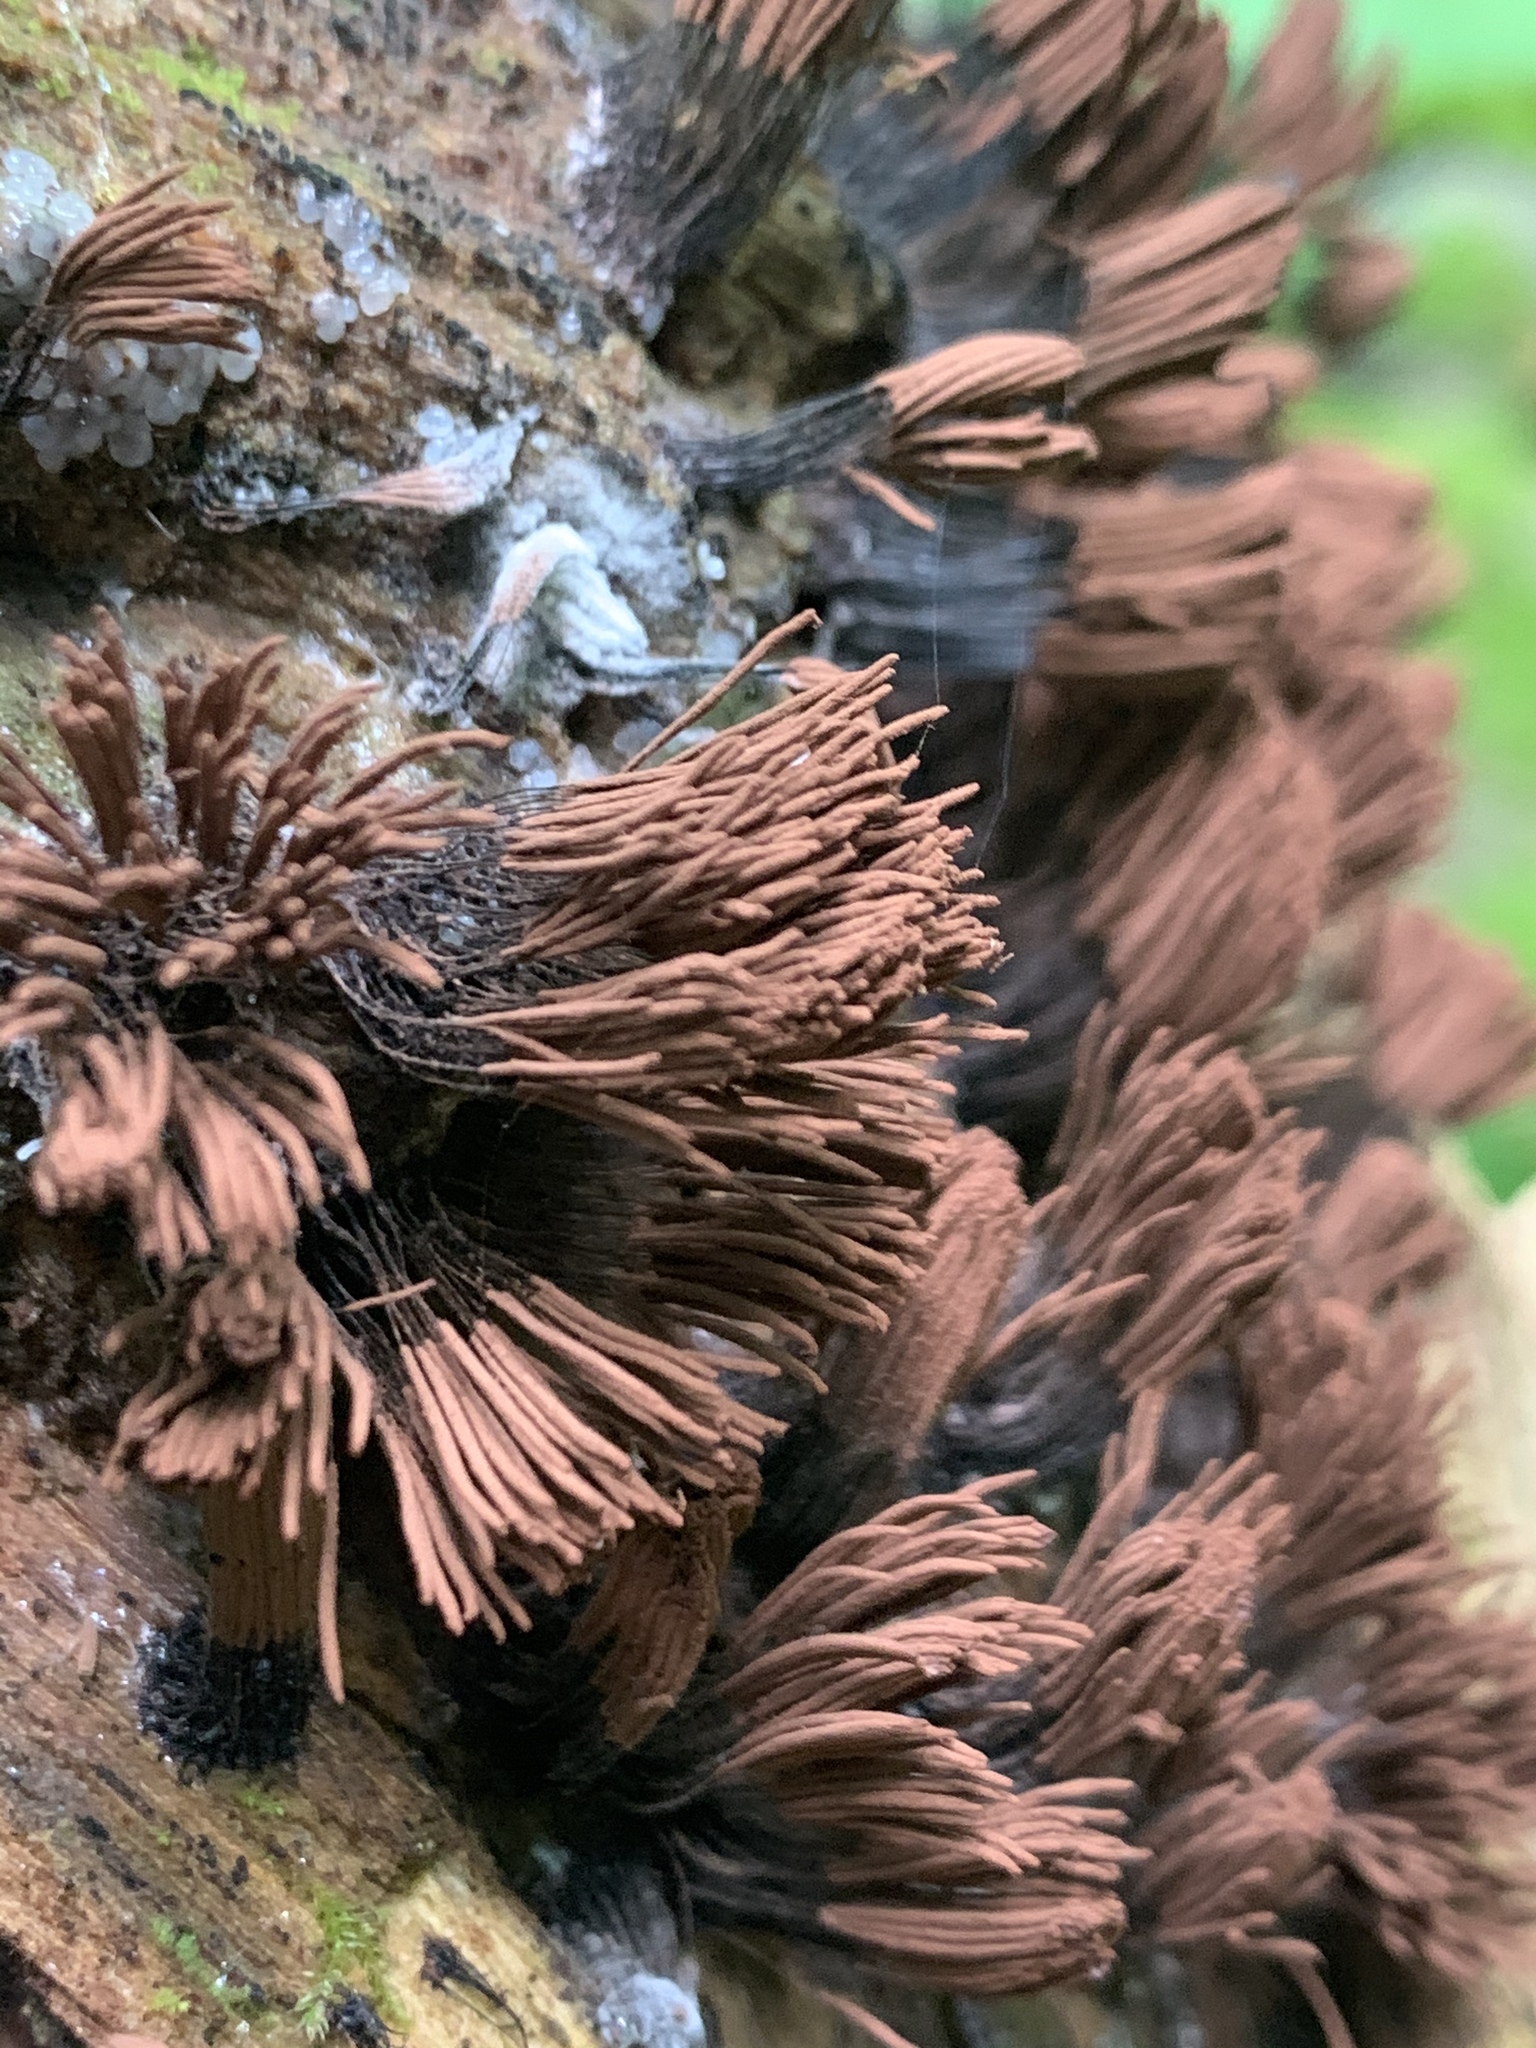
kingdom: Protozoa
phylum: Mycetozoa
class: Myxomycetes
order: Stemonitidales
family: Stemonitidaceae
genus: Stemonitis
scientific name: Stemonitis splendens
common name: Chocolate tube slime
